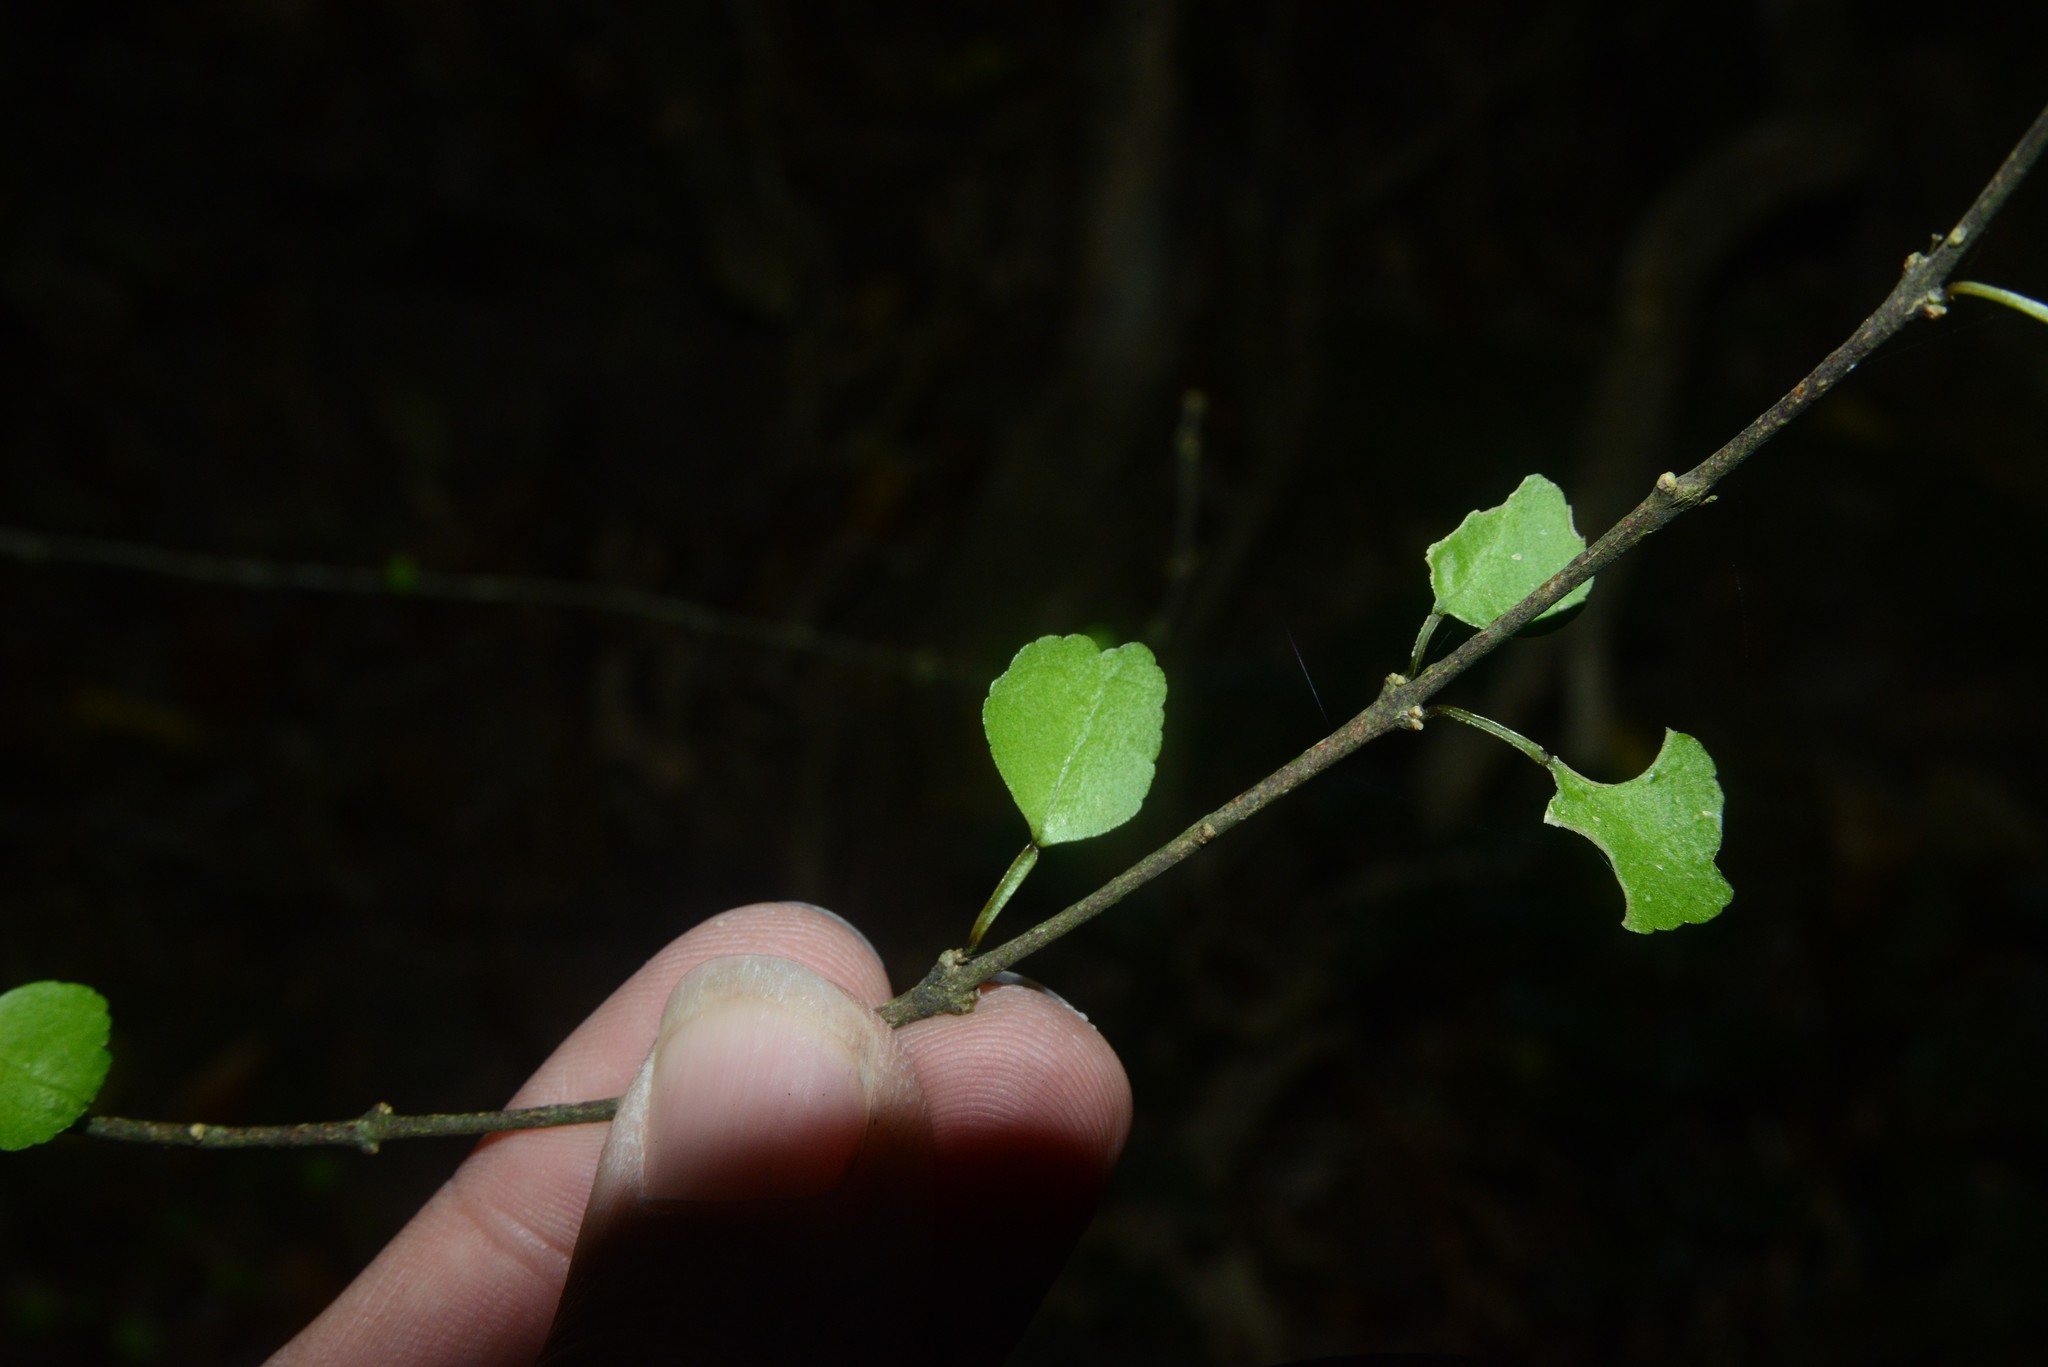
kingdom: Plantae
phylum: Tracheophyta
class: Magnoliopsida
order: Sapindales
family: Rutaceae
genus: Melicope
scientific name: Melicope simplex
